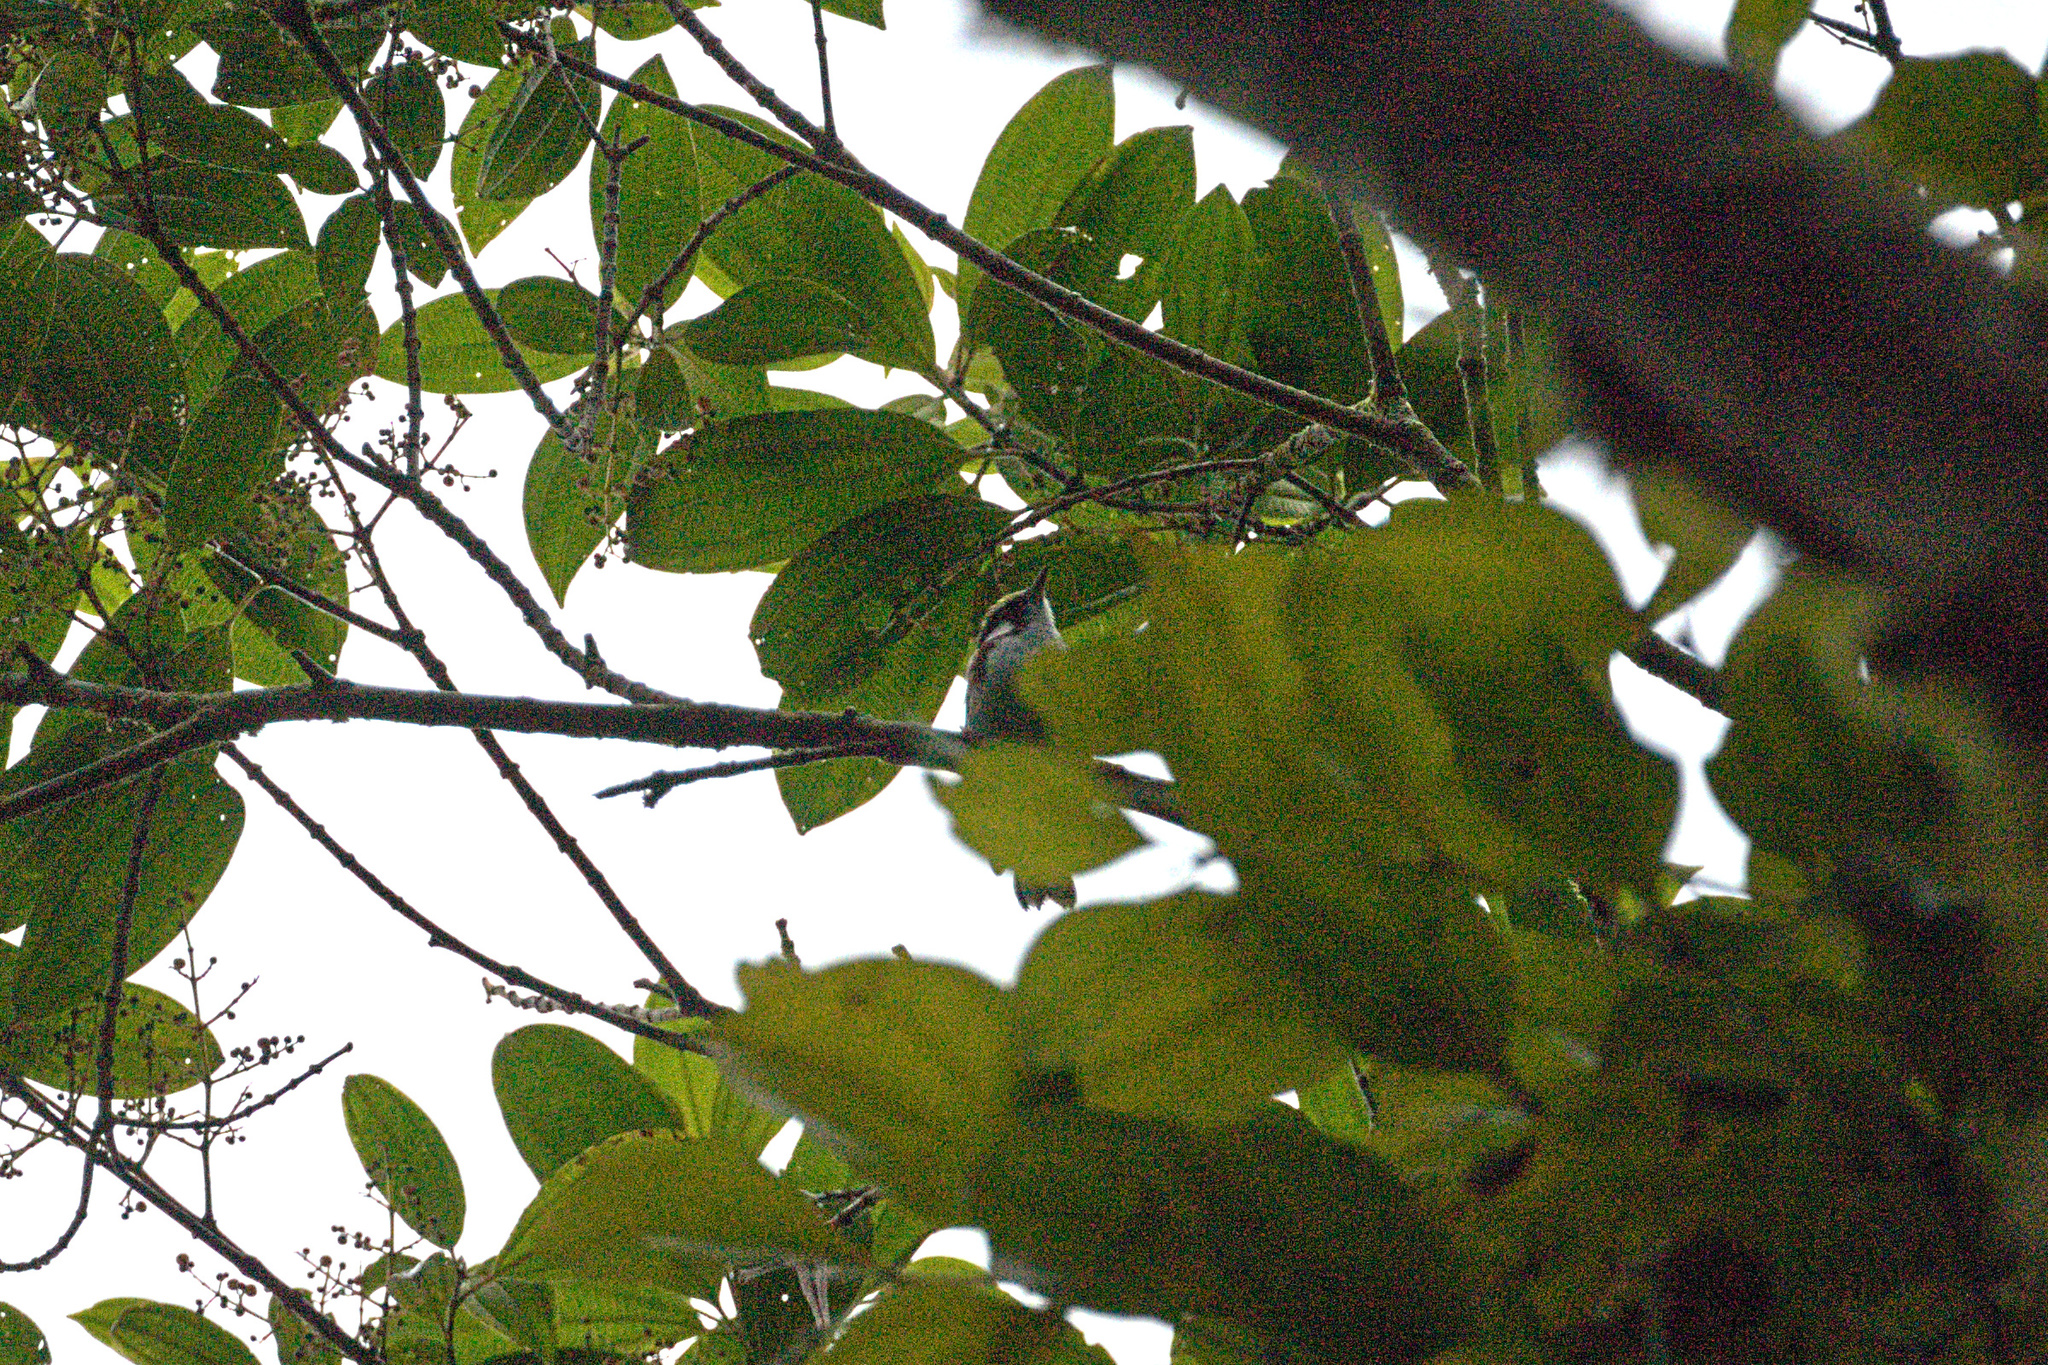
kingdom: Animalia
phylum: Chordata
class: Aves
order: Passeriformes
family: Parulidae
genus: Setophaga
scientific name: Setophaga pensylvanica
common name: Chestnut-sided warbler
